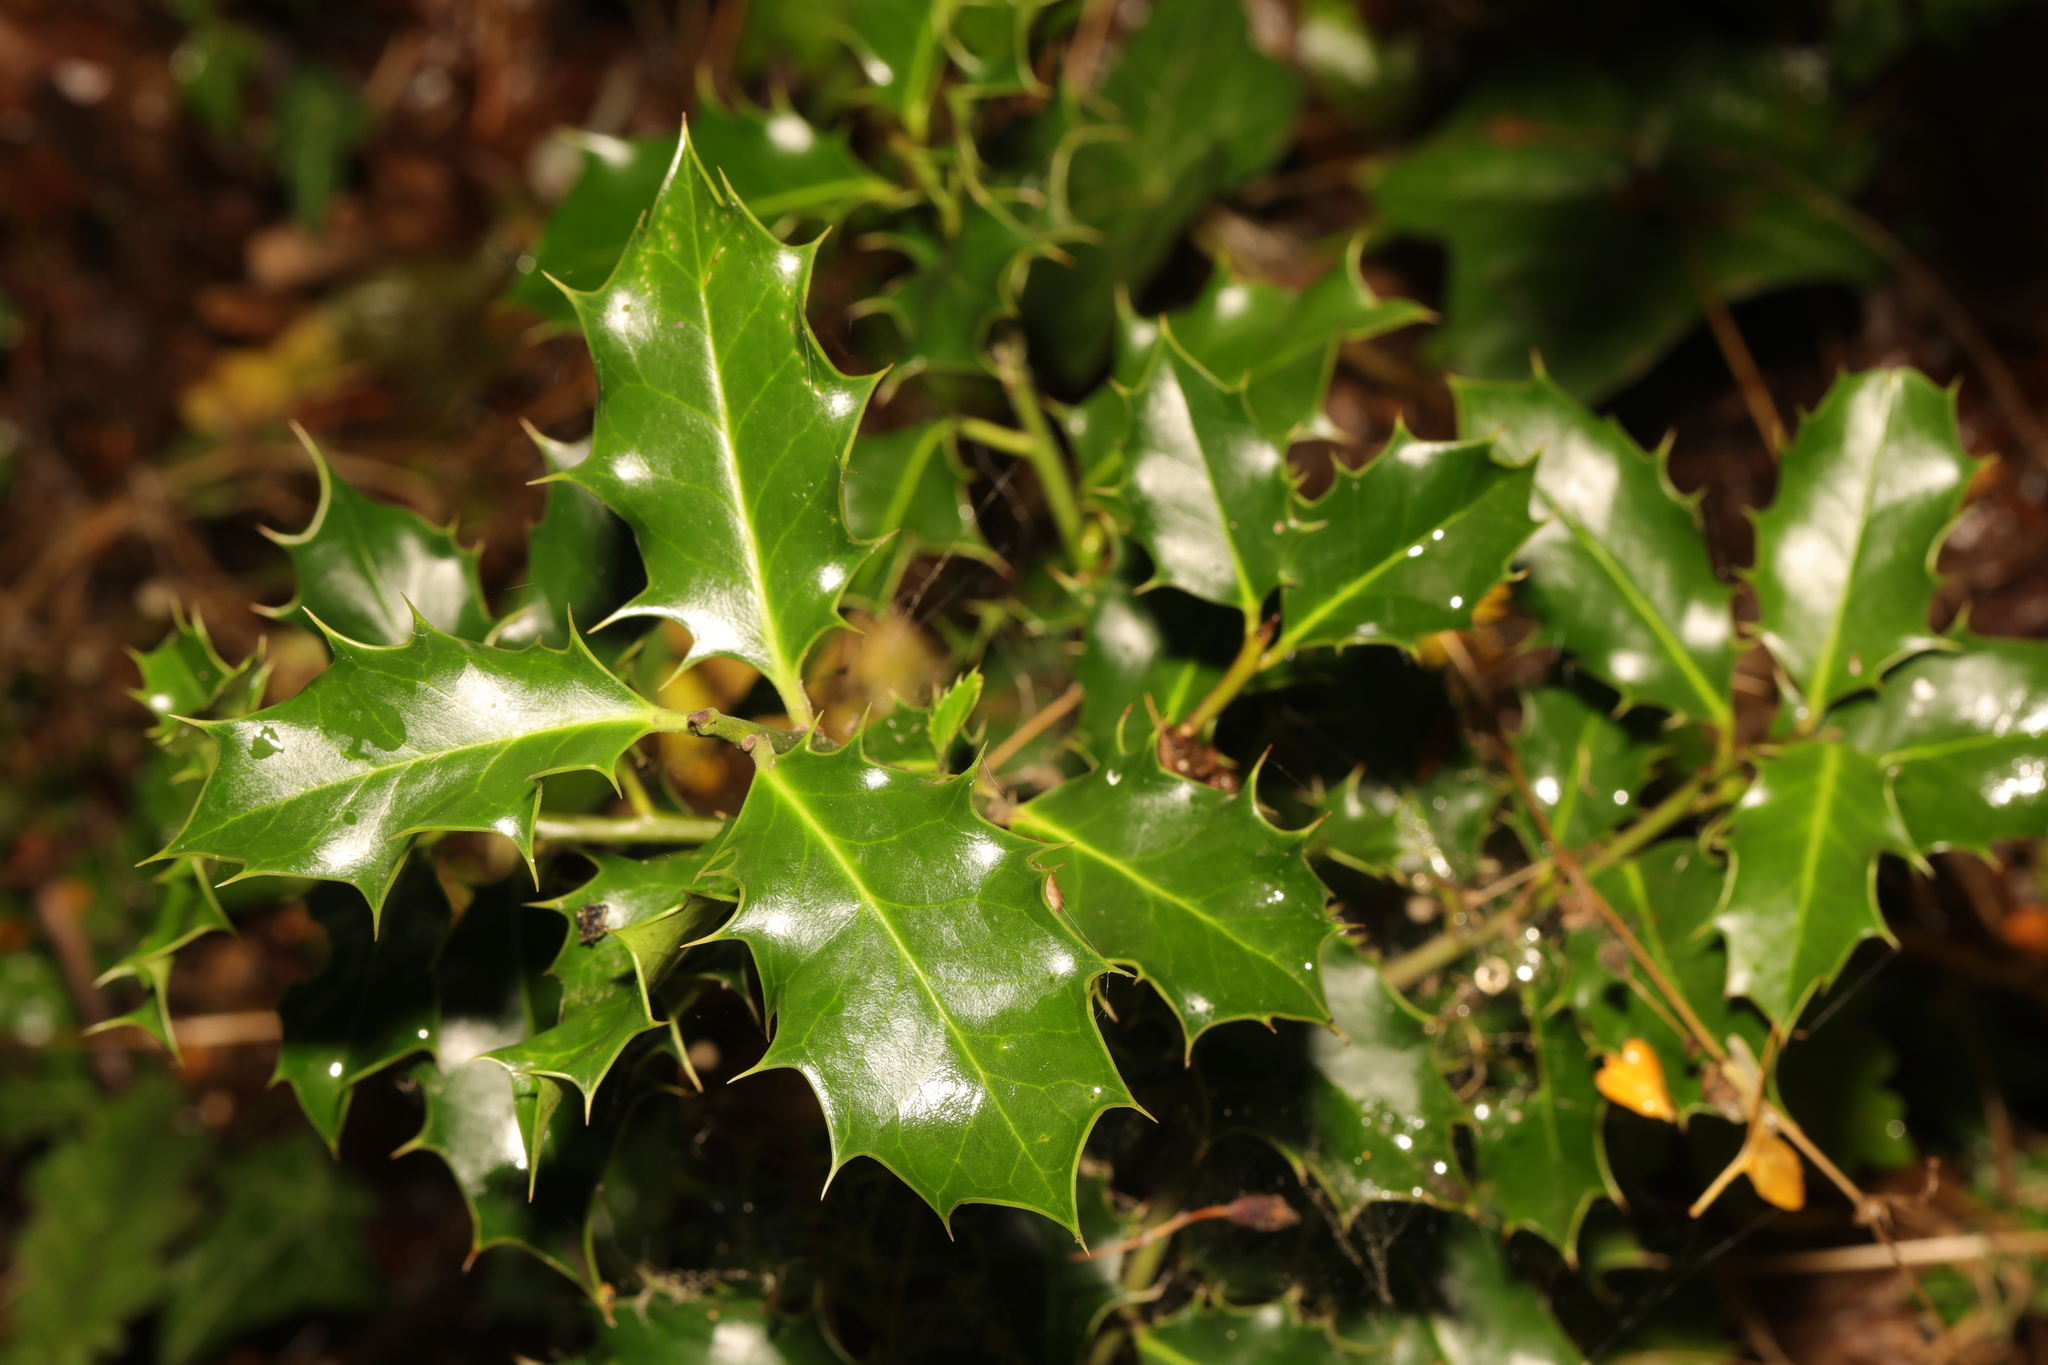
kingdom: Plantae
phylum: Tracheophyta
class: Magnoliopsida
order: Aquifoliales
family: Aquifoliaceae
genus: Ilex
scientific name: Ilex aquifolium
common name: English holly
